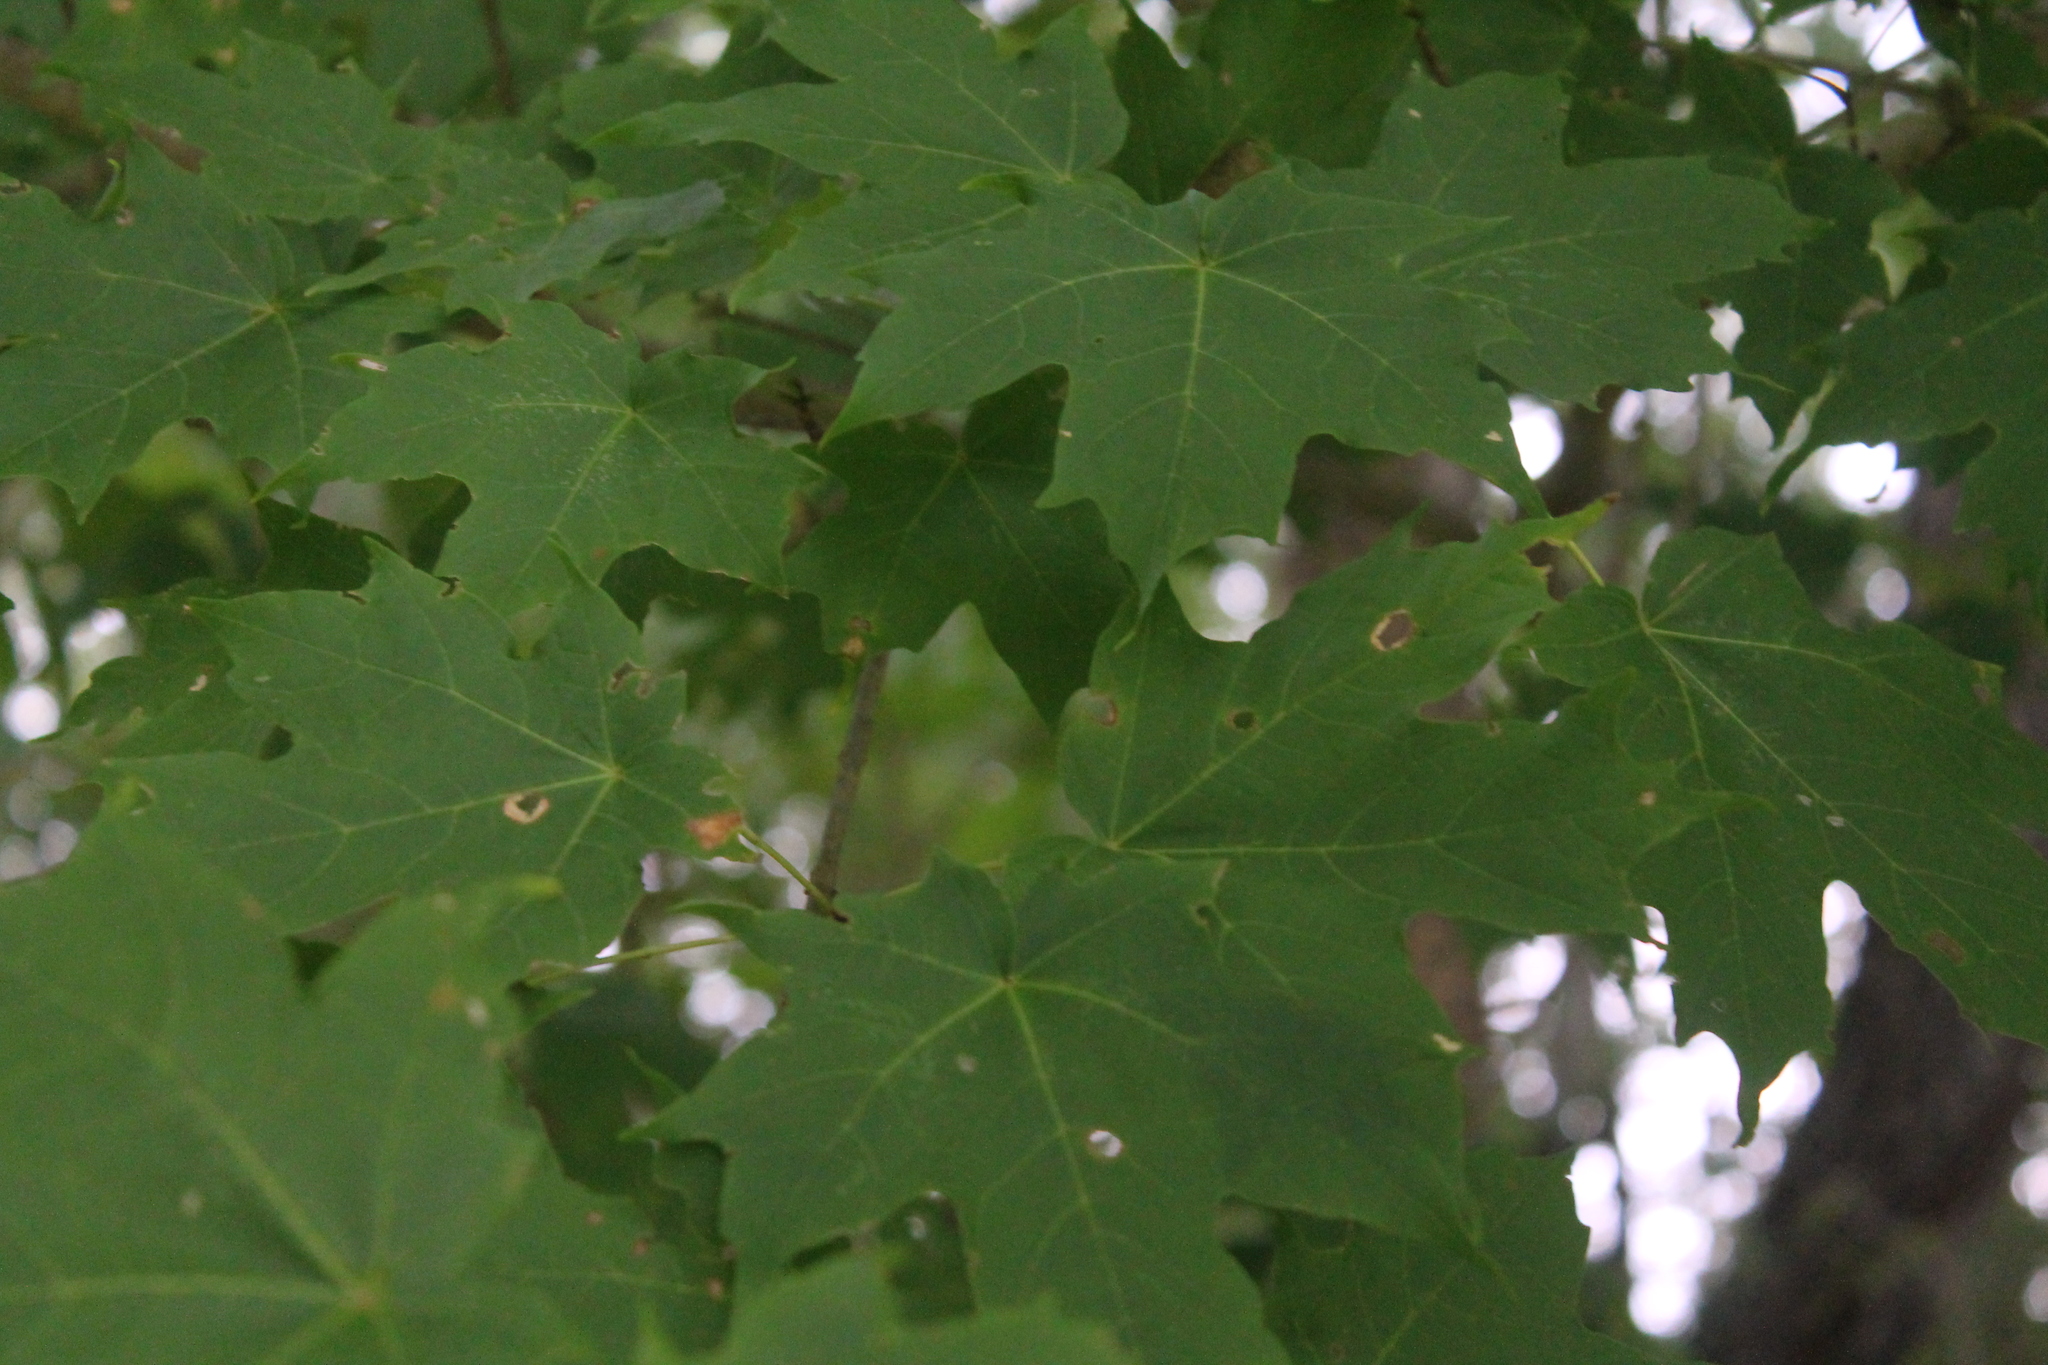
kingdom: Plantae
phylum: Tracheophyta
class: Magnoliopsida
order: Sapindales
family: Sapindaceae
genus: Acer
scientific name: Acer saccharum
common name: Sugar maple
